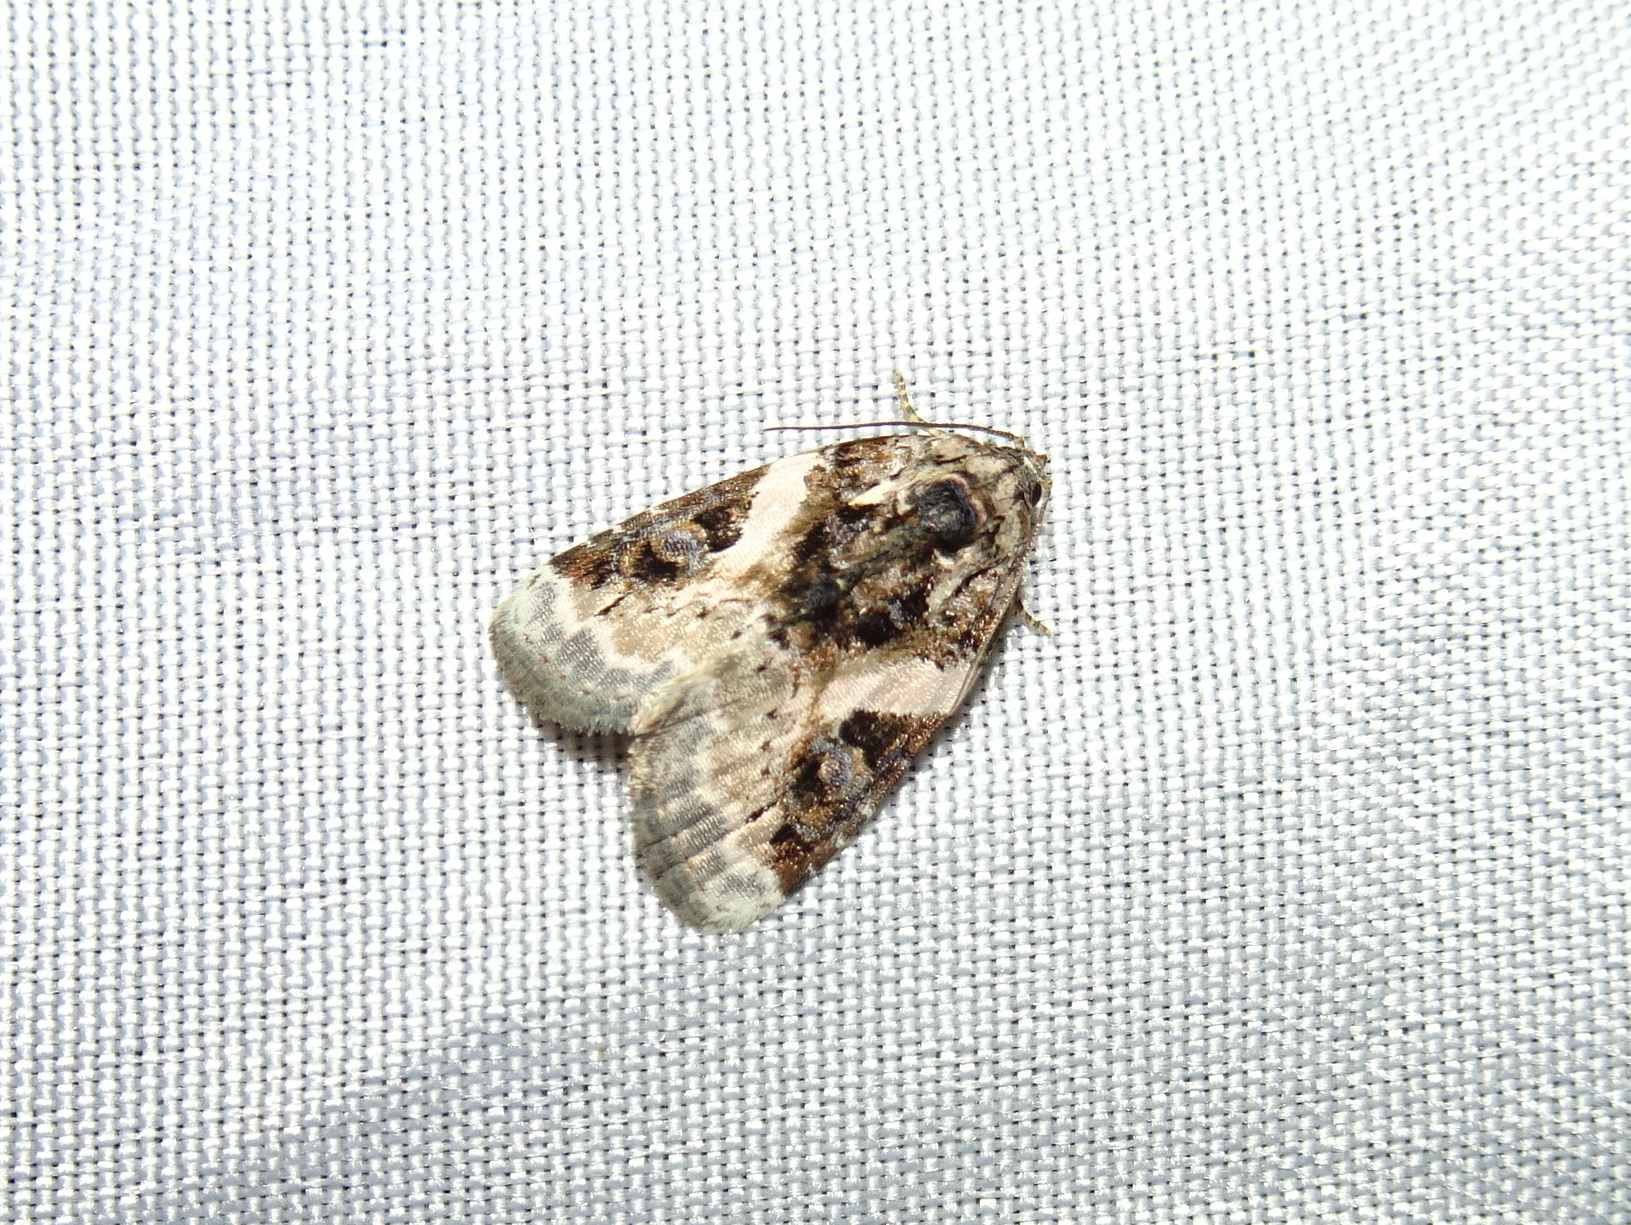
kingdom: Animalia
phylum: Arthropoda
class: Insecta
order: Lepidoptera
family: Noctuidae
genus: Pseudeustrotia
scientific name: Pseudeustrotia carneola
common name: Pink-barred lithacodia moth
